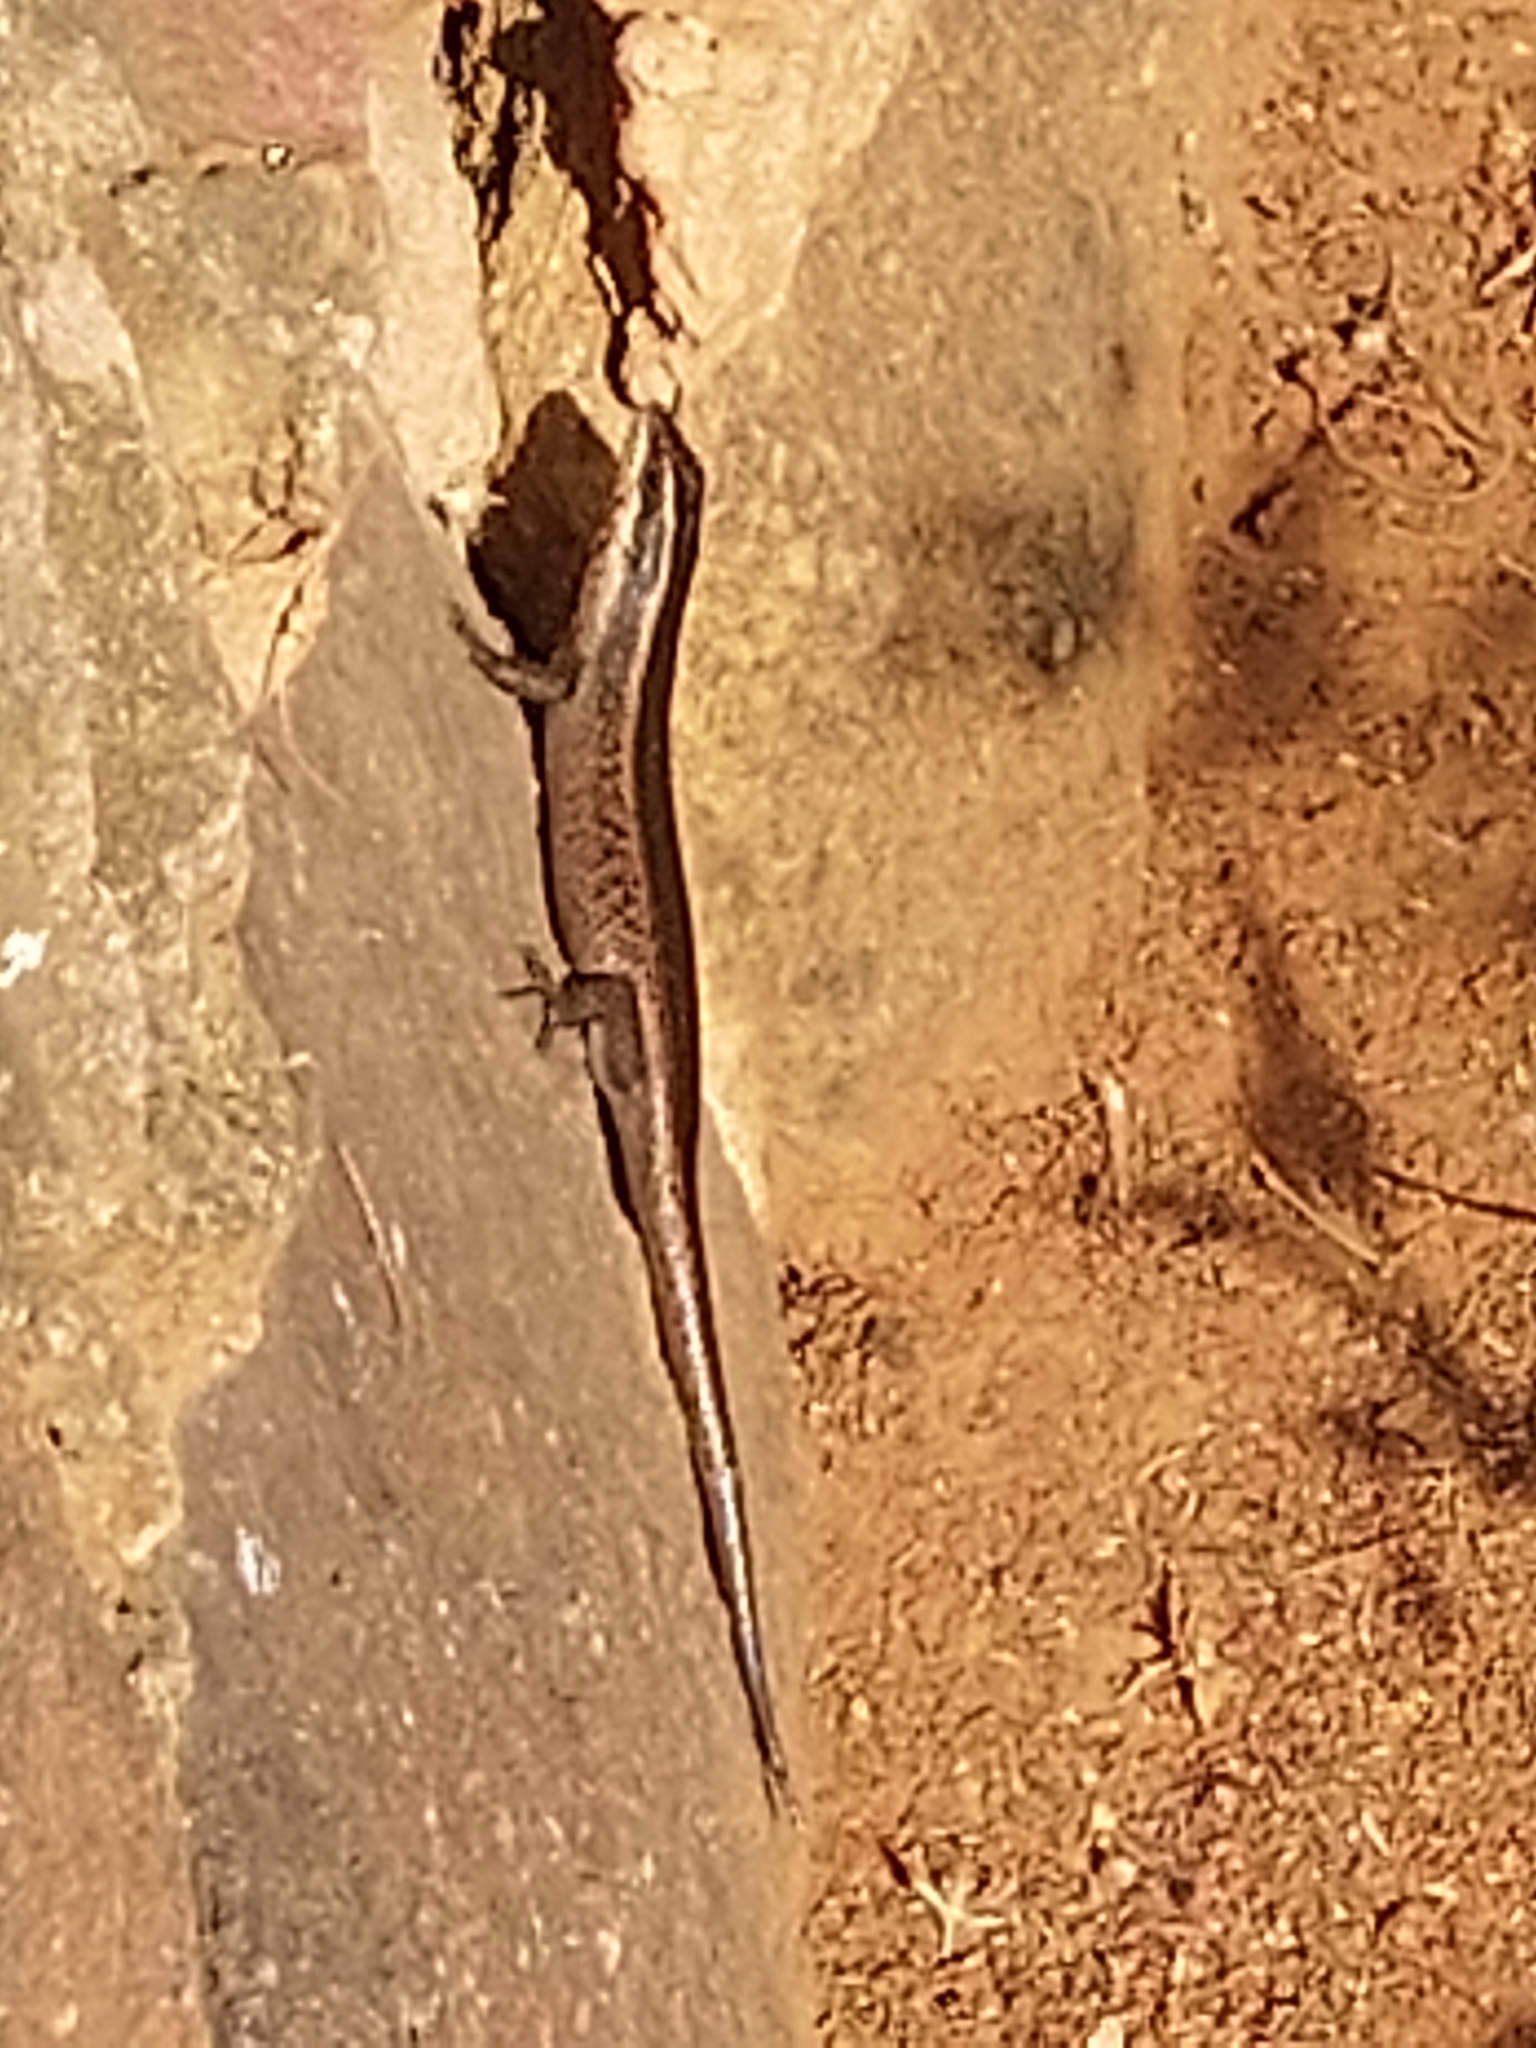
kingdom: Animalia
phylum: Chordata
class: Squamata
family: Scincidae
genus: Trachylepis
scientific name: Trachylepis punctatissima
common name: Montane speckled skink
